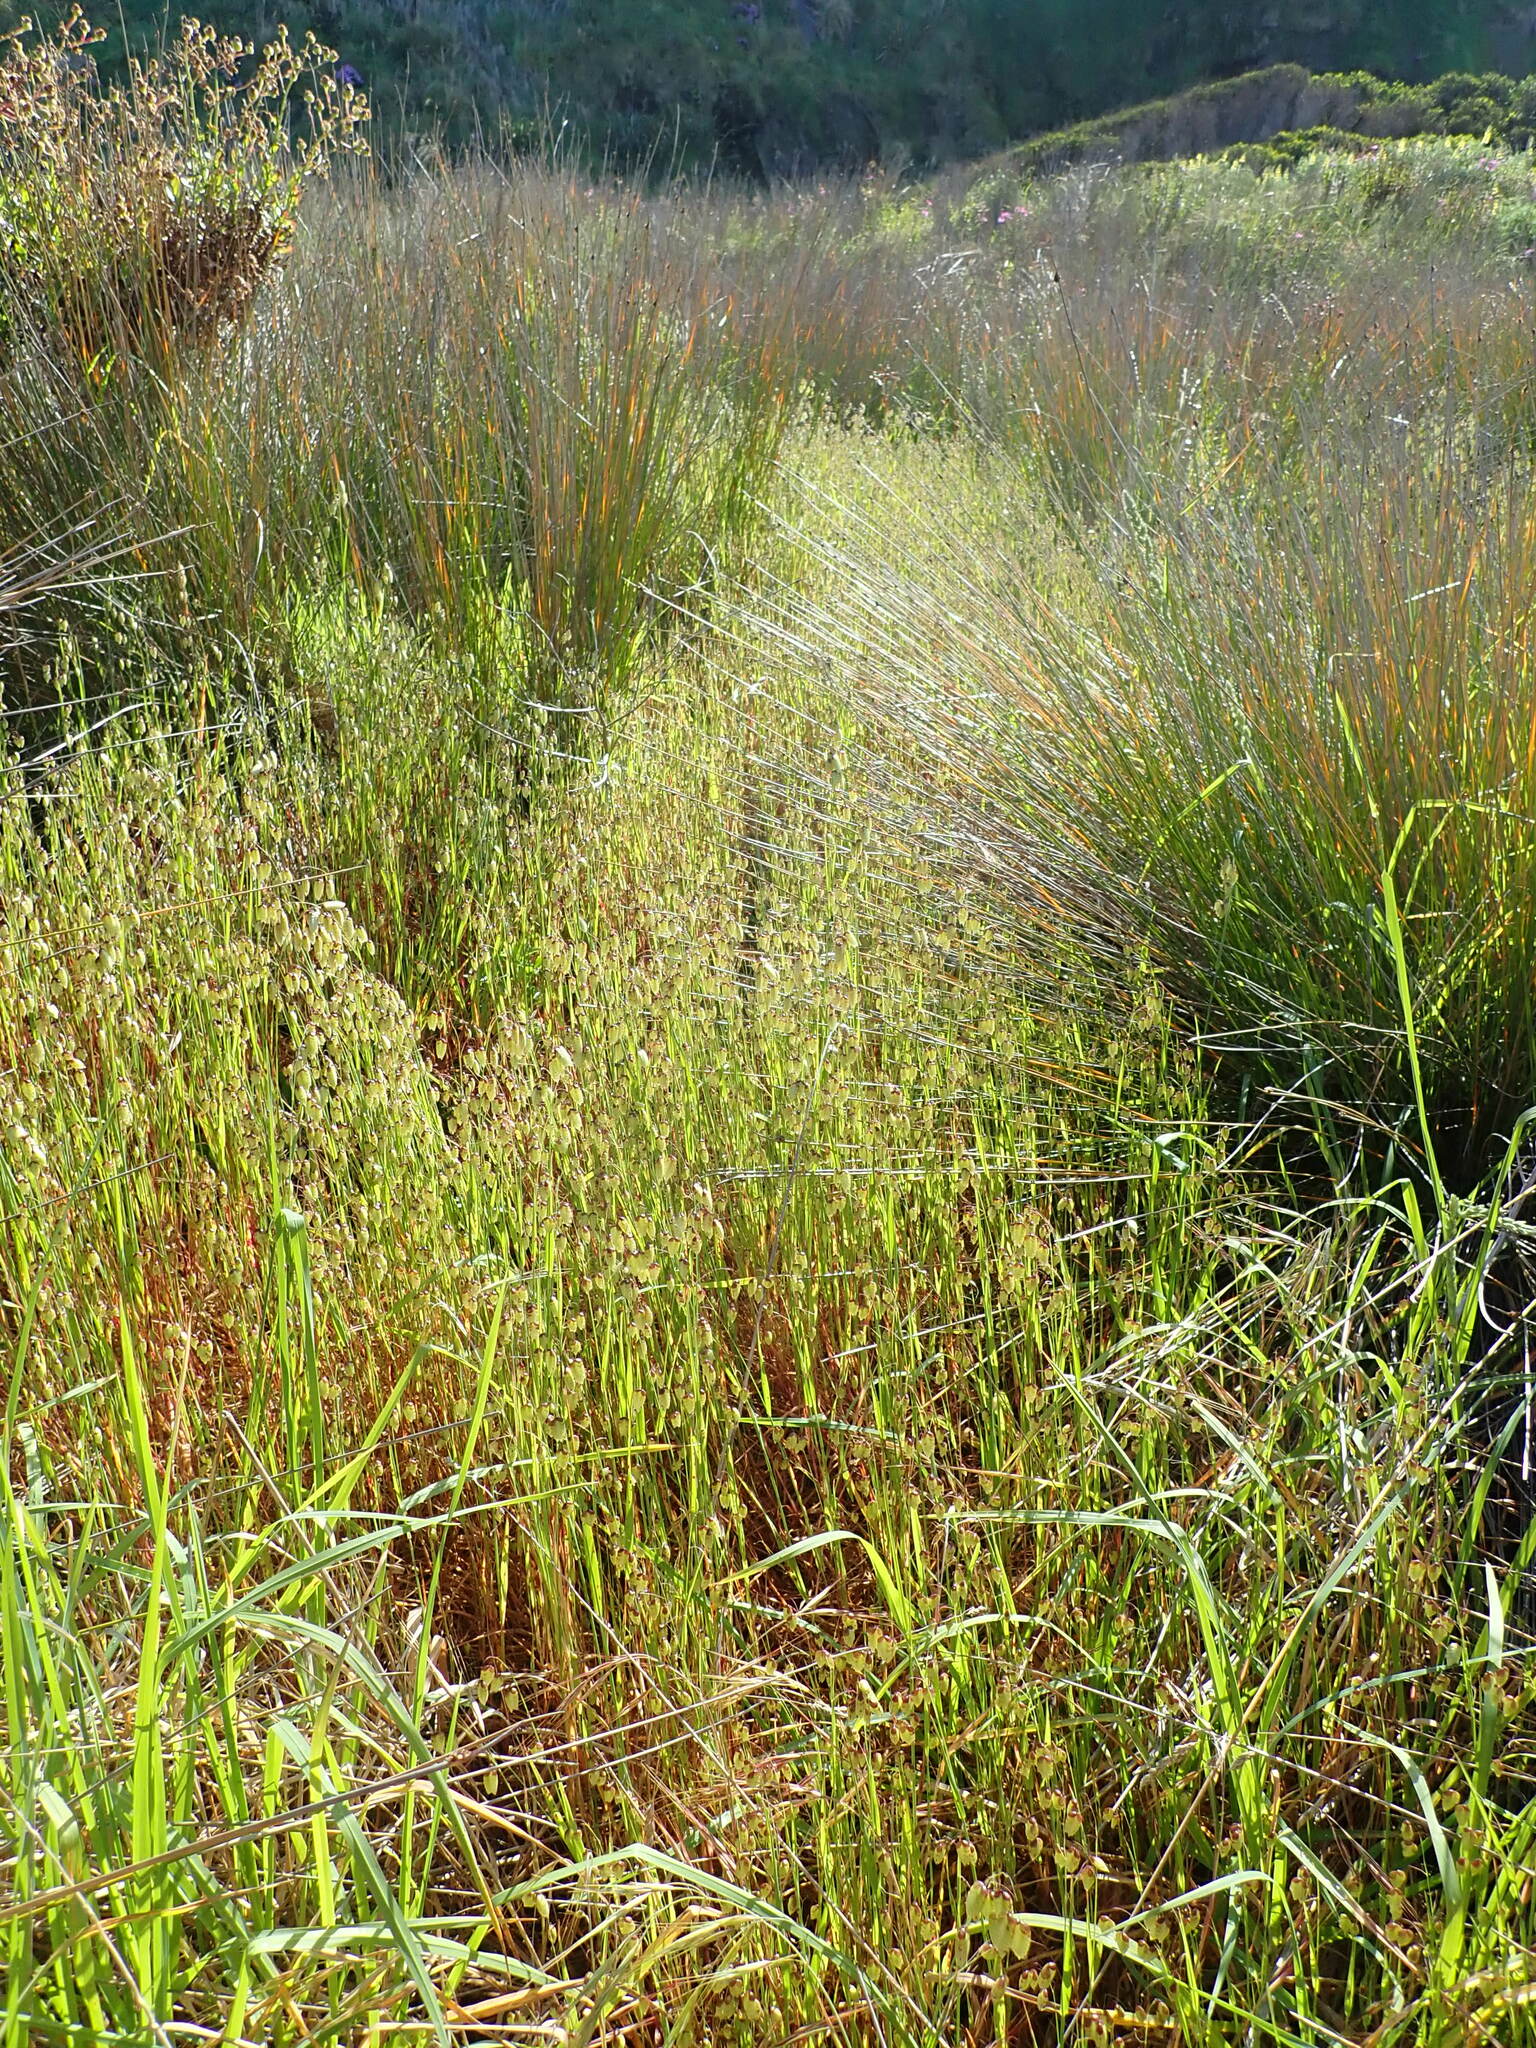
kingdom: Plantae
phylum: Tracheophyta
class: Liliopsida
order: Poales
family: Poaceae
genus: Briza
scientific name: Briza maxima
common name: Big quakinggrass
